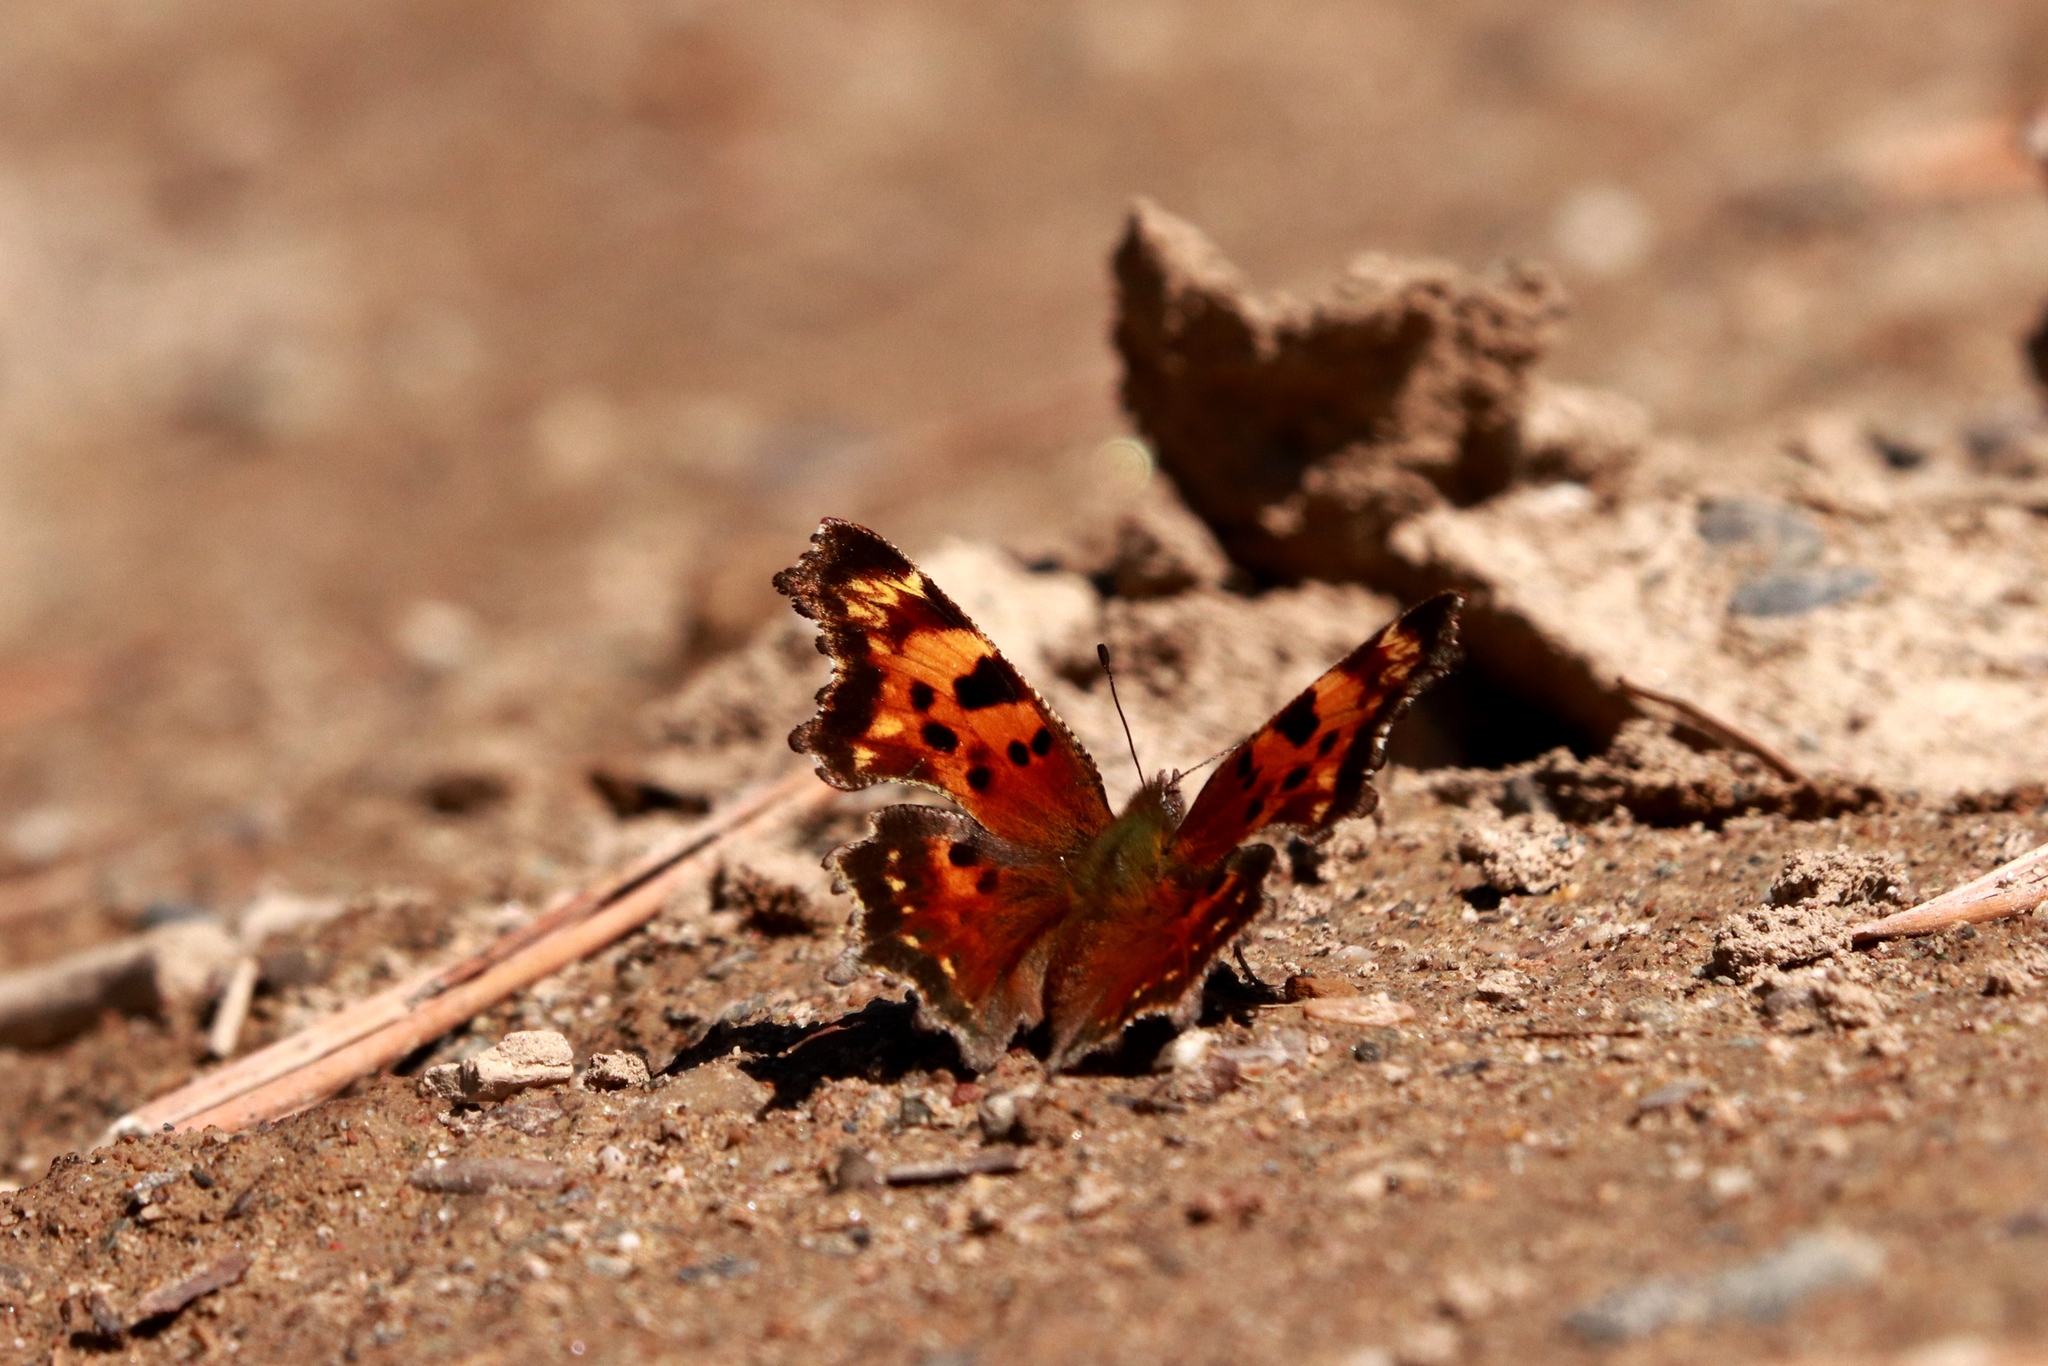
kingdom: Animalia
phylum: Arthropoda
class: Insecta
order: Lepidoptera
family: Nymphalidae
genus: Polygonia
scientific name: Polygonia faunus
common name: Green comma
